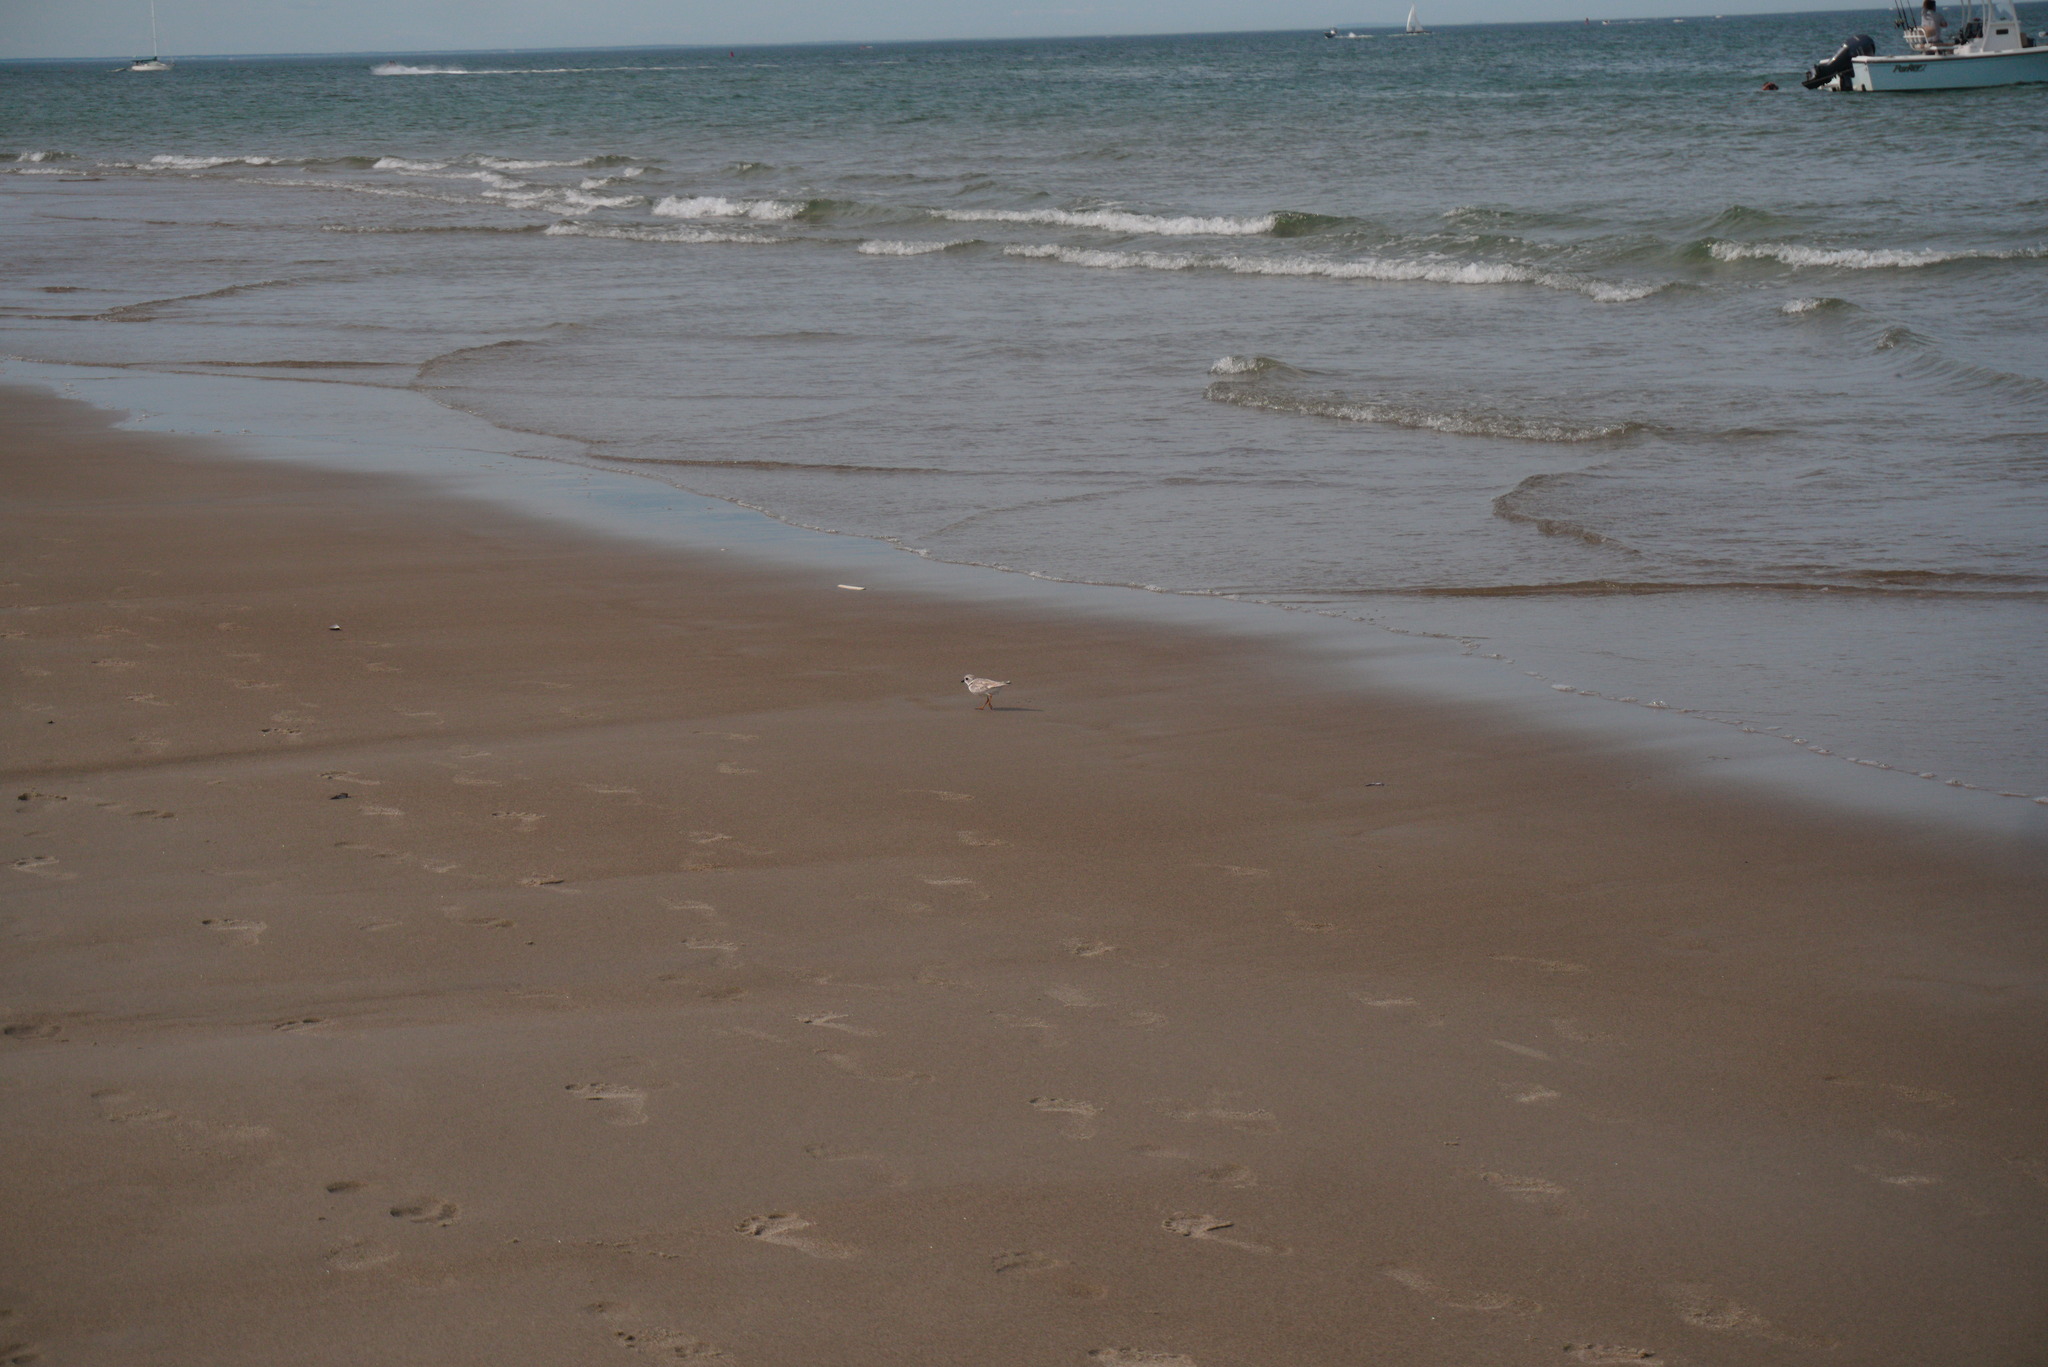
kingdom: Animalia
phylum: Chordata
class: Aves
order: Charadriiformes
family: Charadriidae
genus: Charadrius
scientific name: Charadrius melodus
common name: Piping plover
